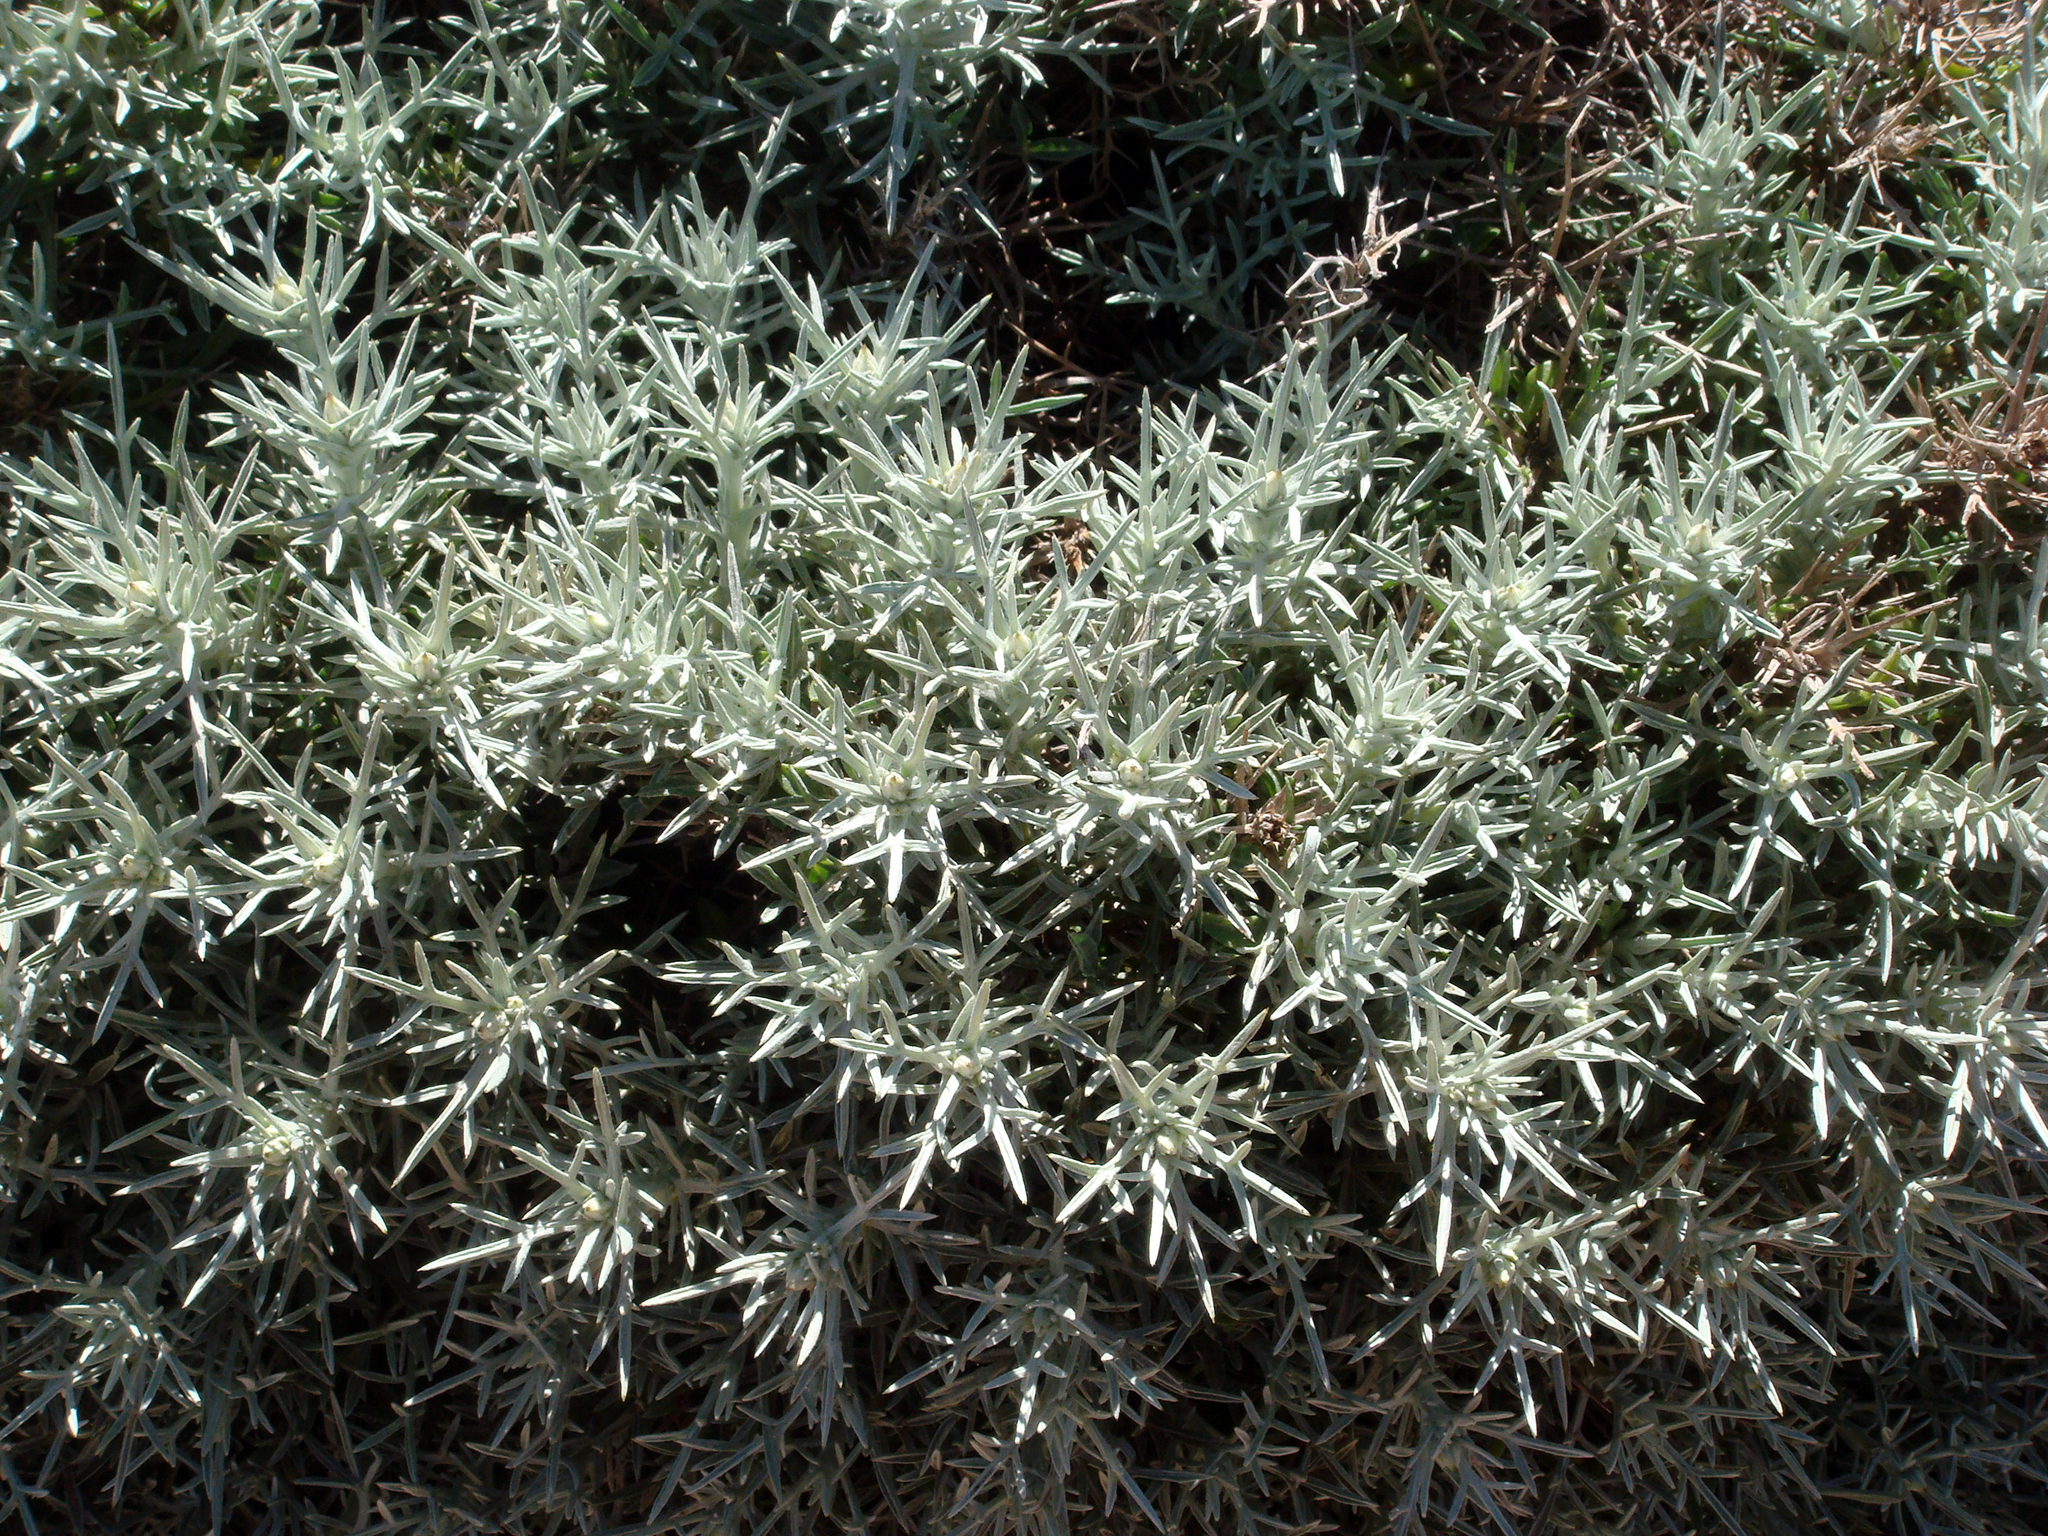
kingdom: Plantae
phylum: Tracheophyta
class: Magnoliopsida
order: Asterales
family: Asteraceae
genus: Centaurea
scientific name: Centaurea horrida
